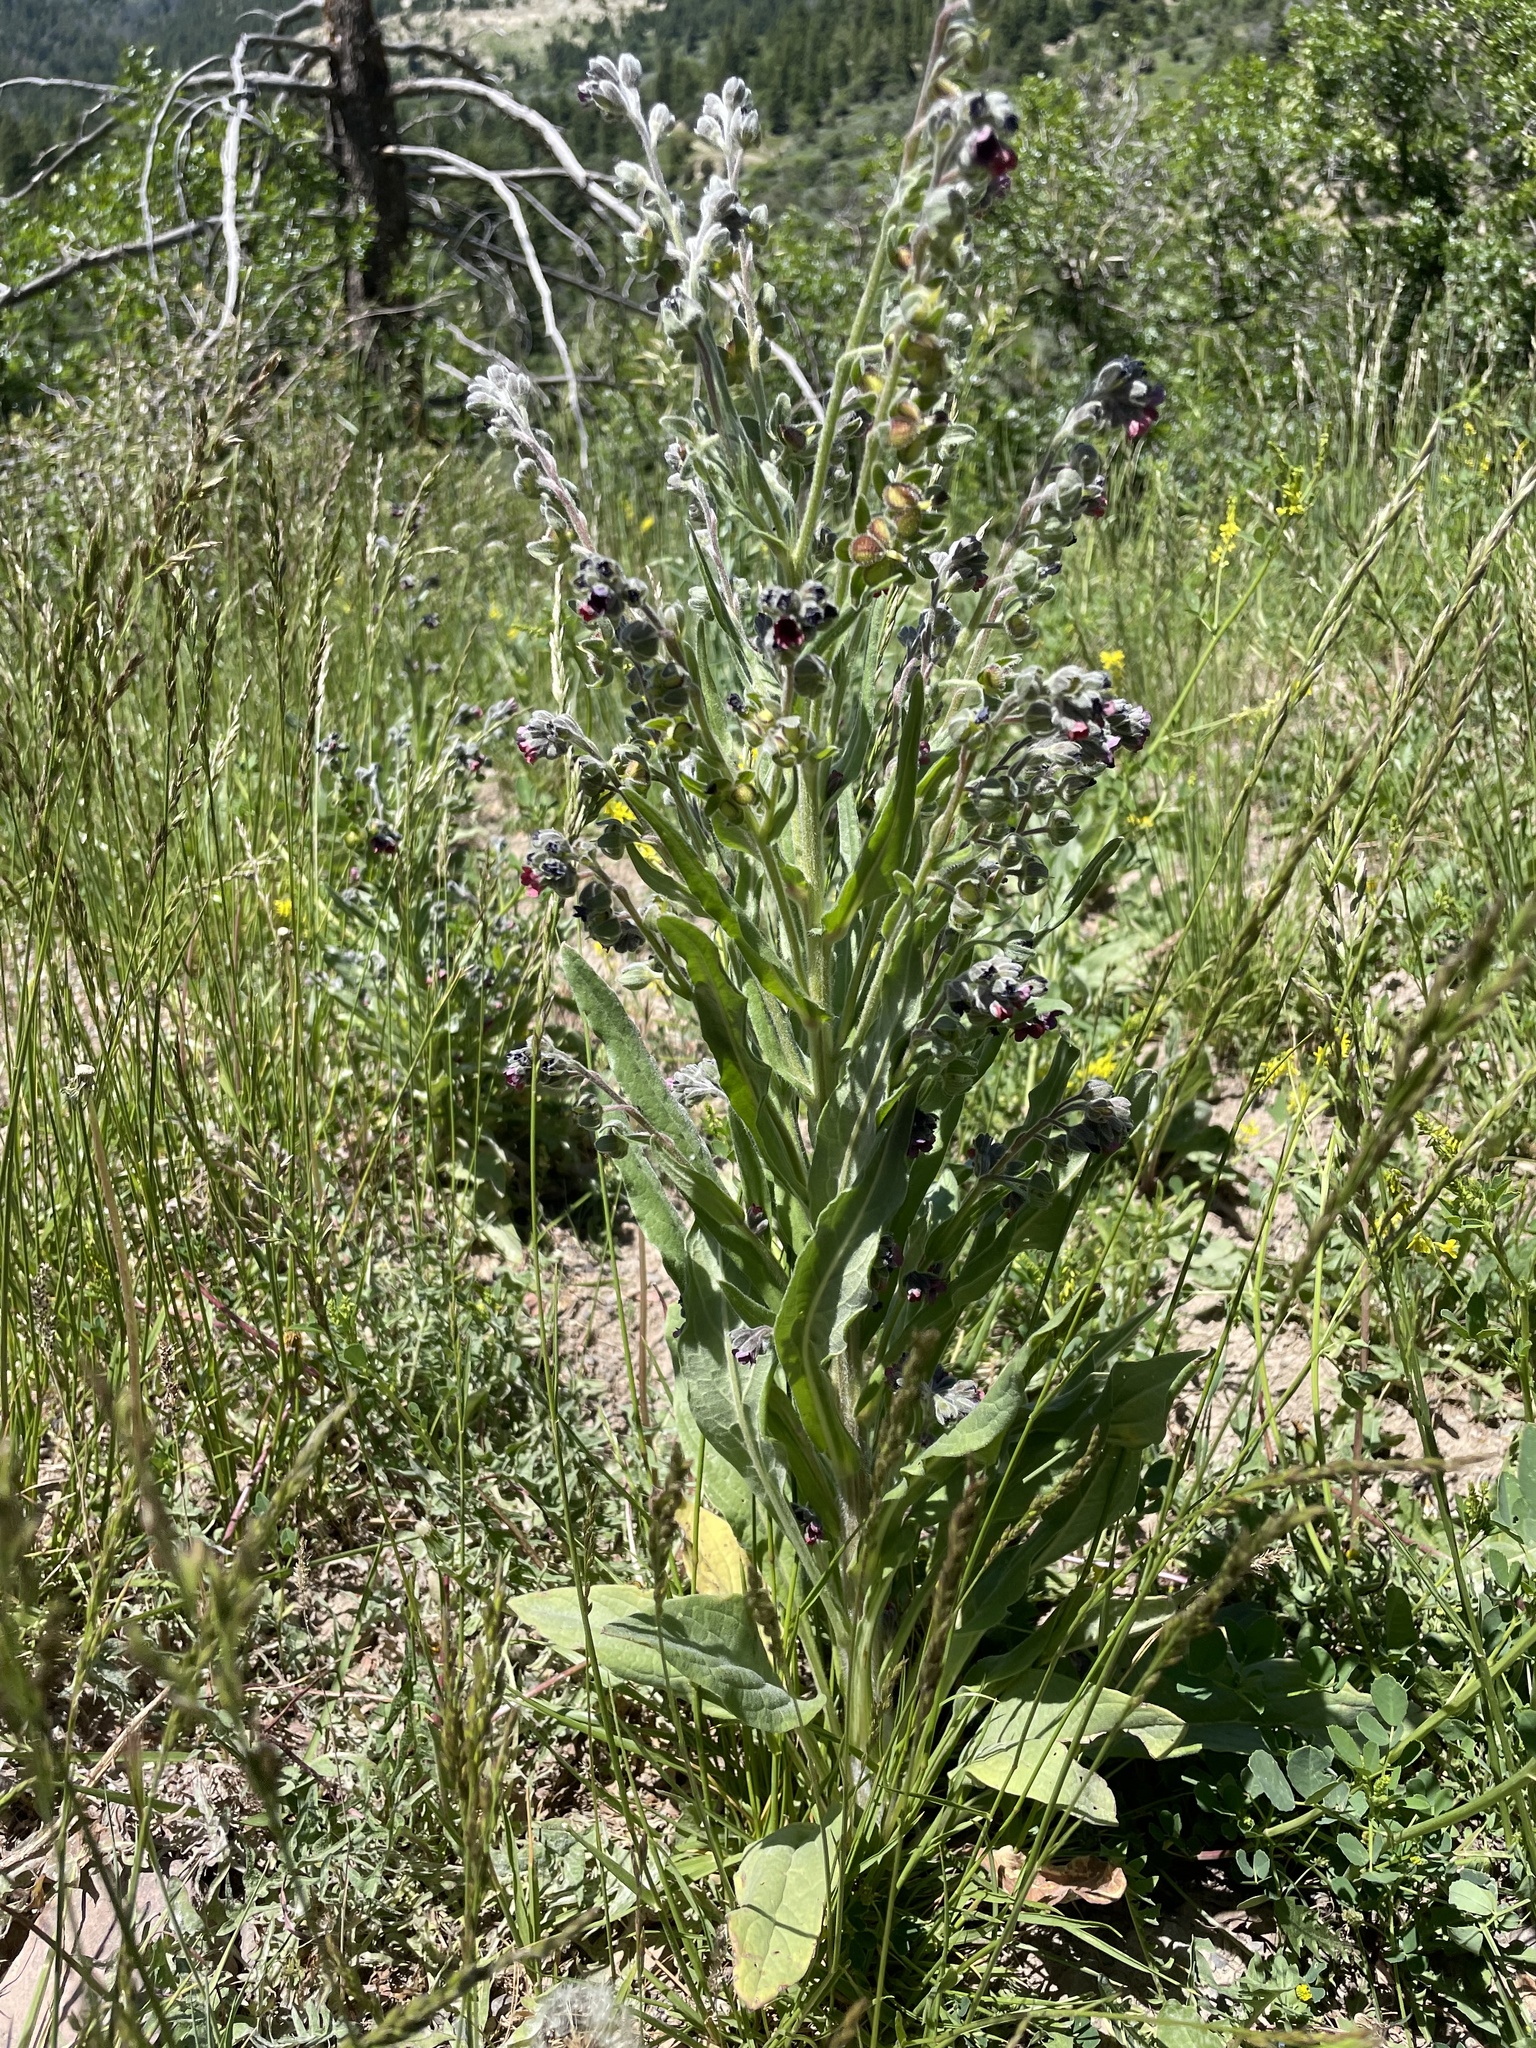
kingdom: Plantae
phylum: Tracheophyta
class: Magnoliopsida
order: Boraginales
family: Boraginaceae
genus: Cynoglossum
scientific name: Cynoglossum officinale
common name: Hound's-tongue
